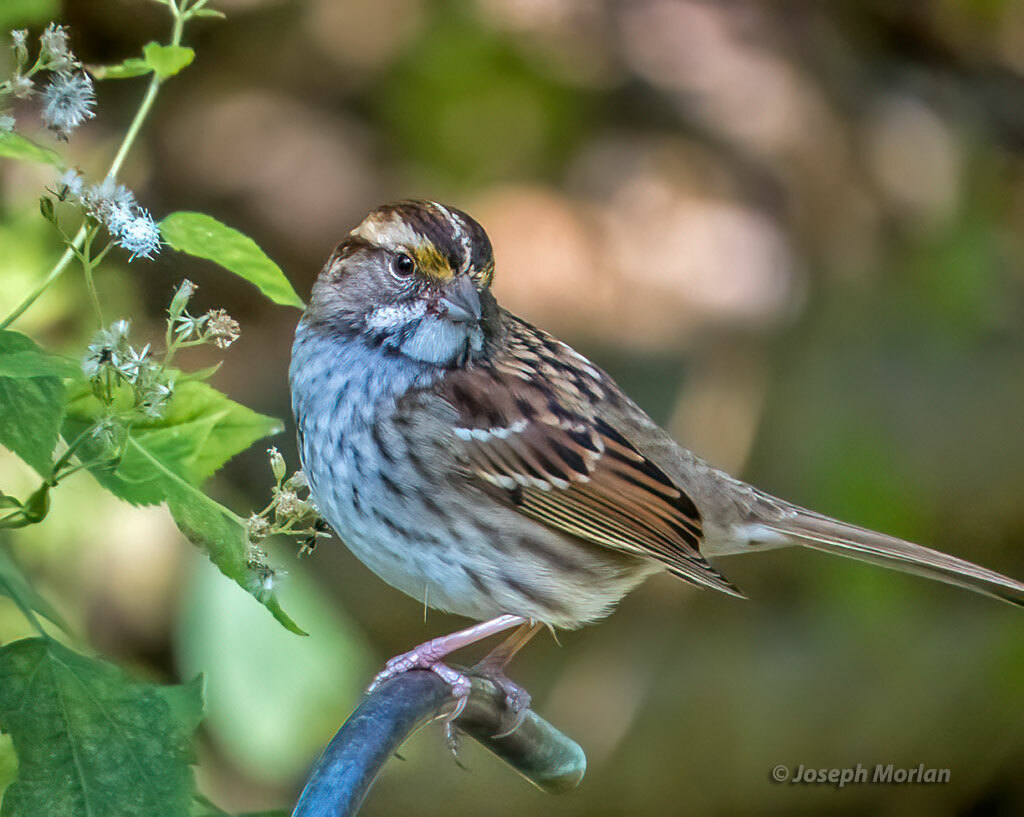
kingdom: Animalia
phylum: Chordata
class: Aves
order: Passeriformes
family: Passerellidae
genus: Zonotrichia
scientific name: Zonotrichia albicollis
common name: White-throated sparrow
